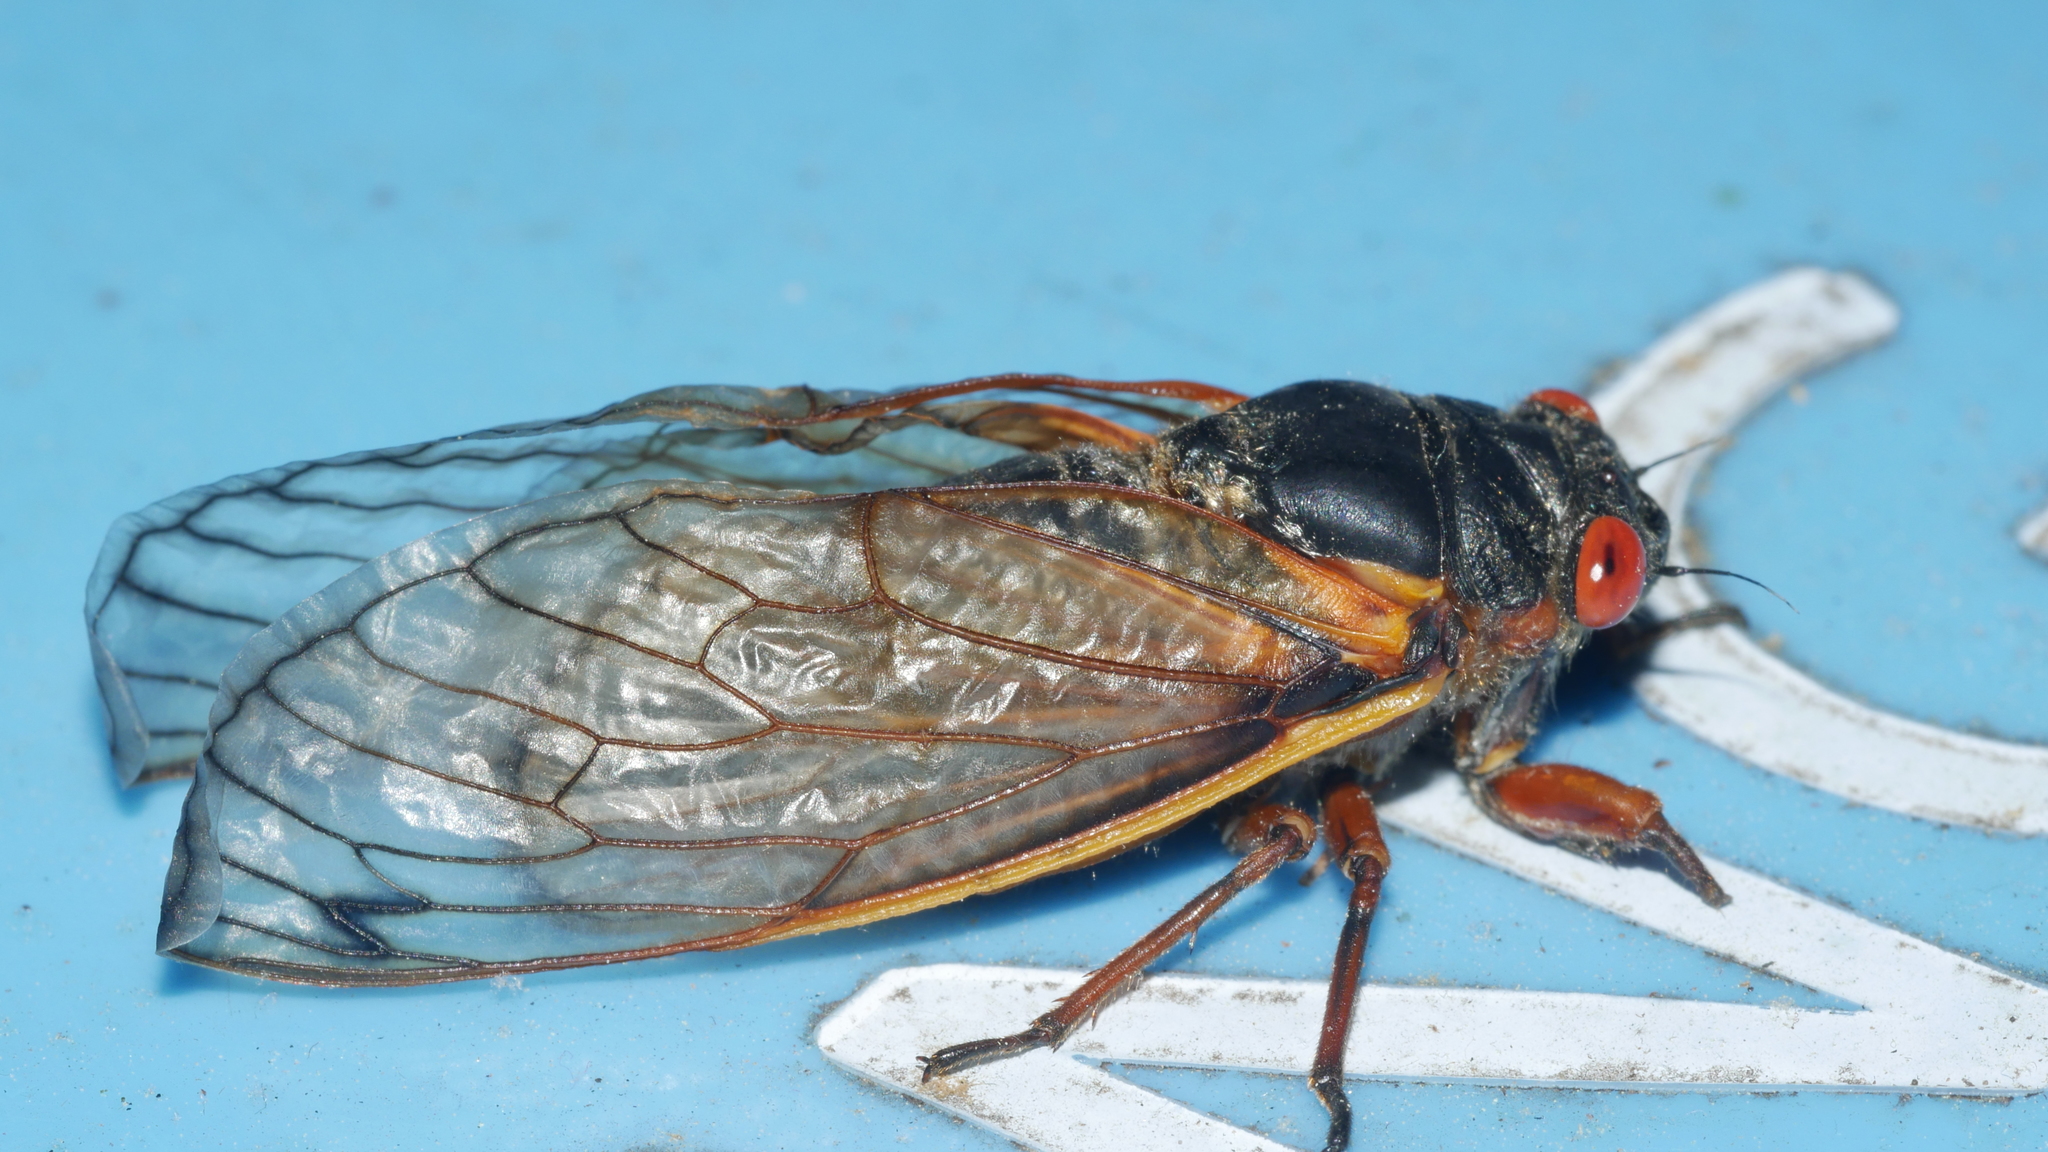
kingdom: Animalia
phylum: Arthropoda
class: Insecta
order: Hemiptera
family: Cicadidae
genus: Magicicada
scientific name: Magicicada septendecim
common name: Periodical cicada
